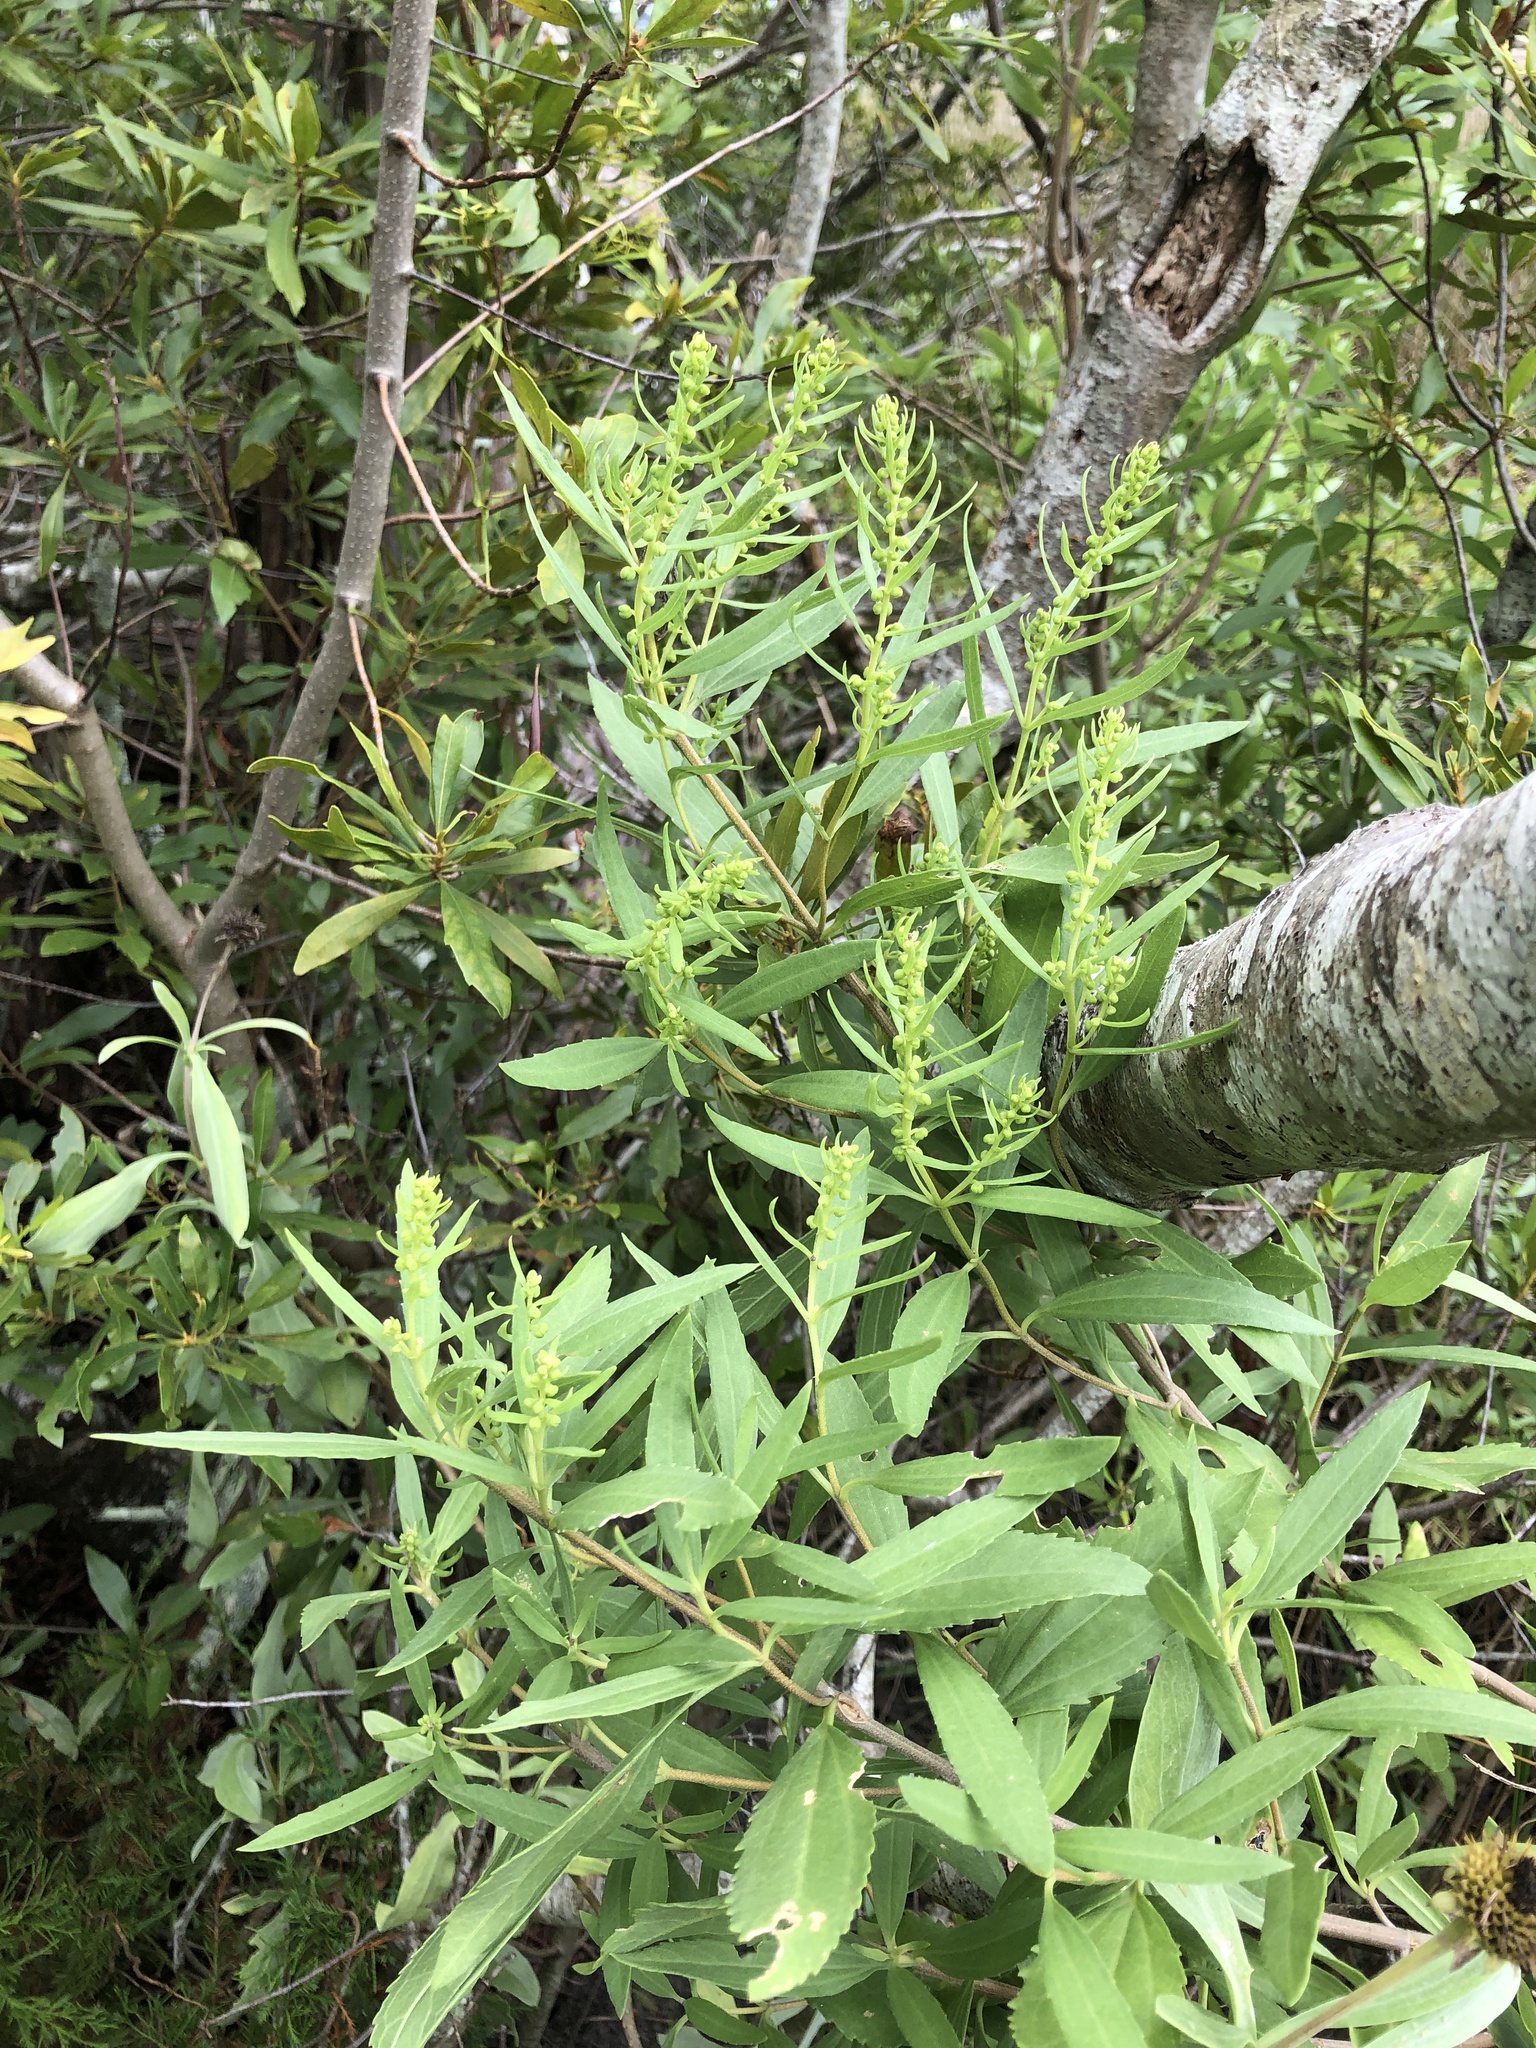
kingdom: Plantae
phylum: Tracheophyta
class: Magnoliopsida
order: Asterales
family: Asteraceae
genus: Iva
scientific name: Iva frutescens
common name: Big-leaved marsh-elder
